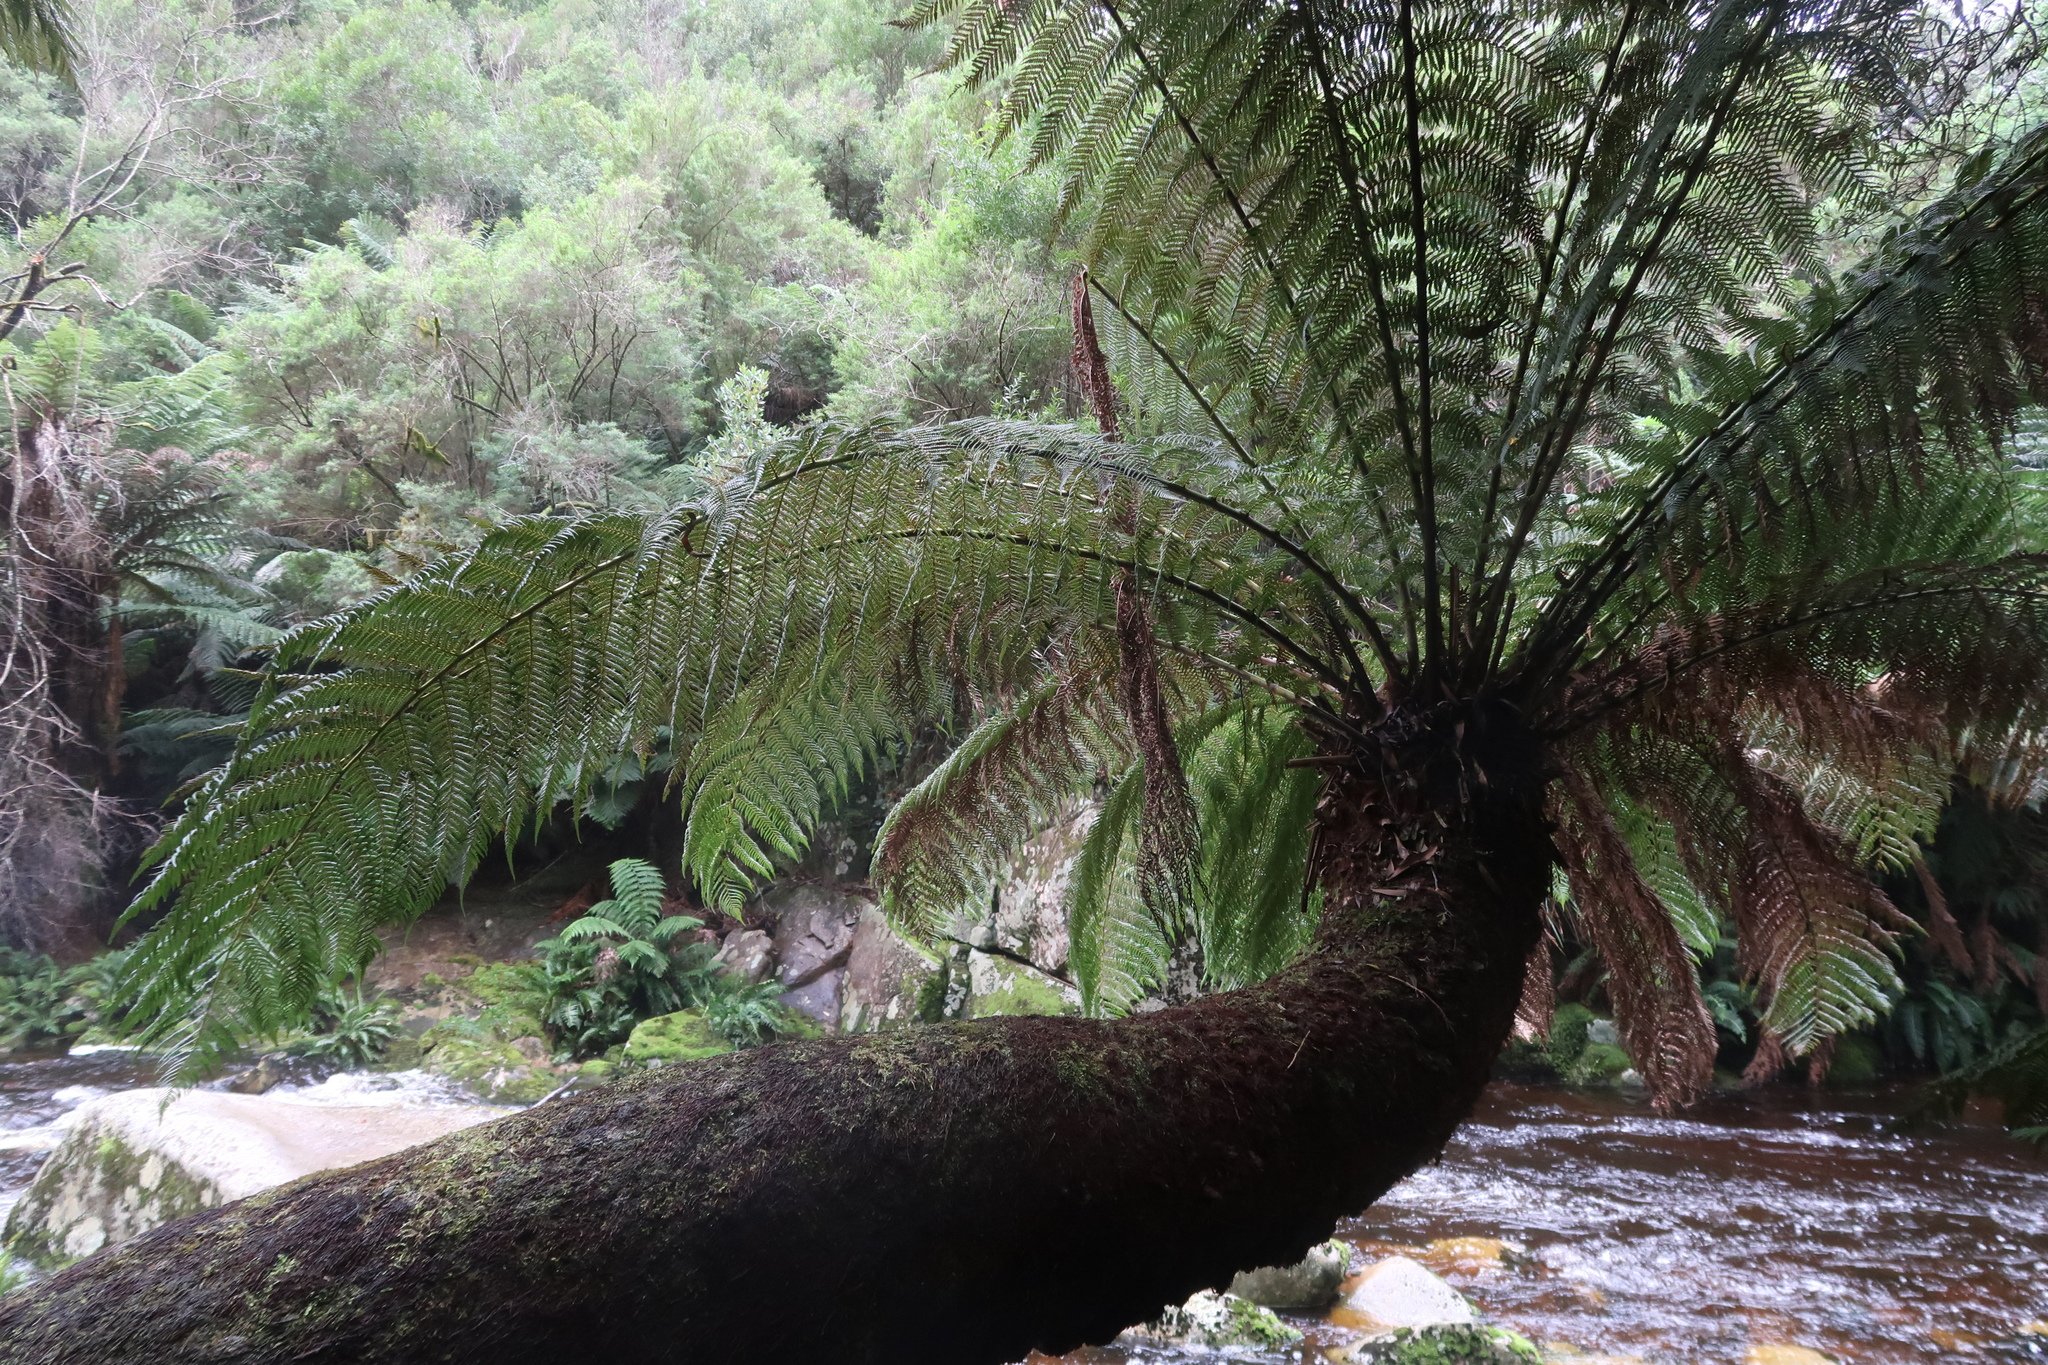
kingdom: Plantae
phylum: Tracheophyta
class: Polypodiopsida
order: Cyatheales
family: Dicksoniaceae
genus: Dicksonia
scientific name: Dicksonia antarctica
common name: Australian treefern
